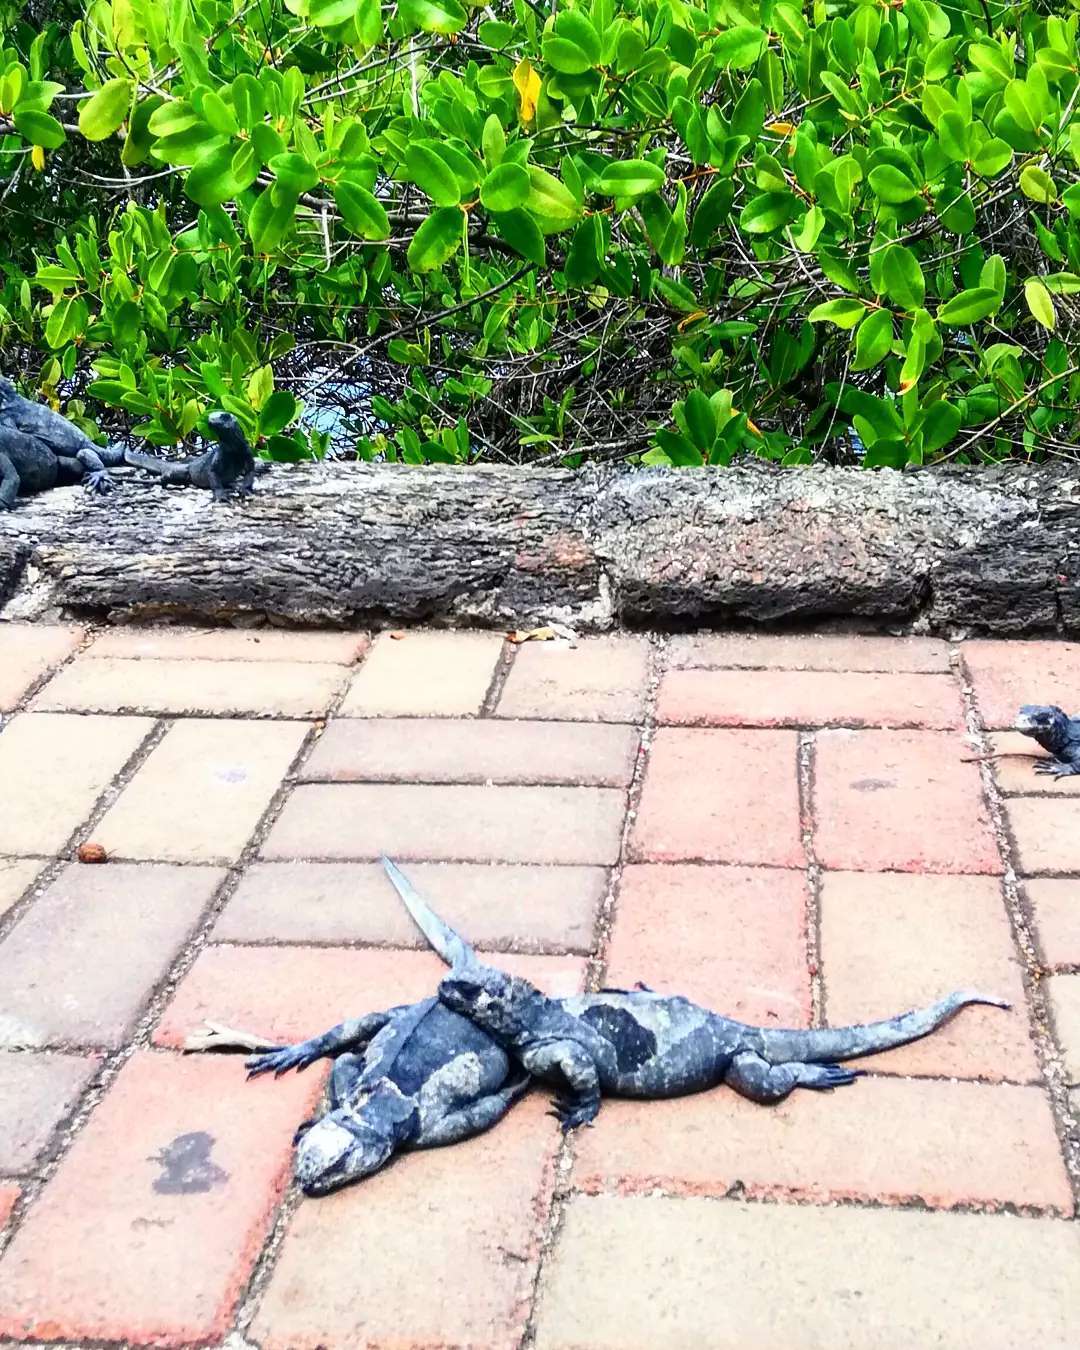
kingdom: Animalia
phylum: Chordata
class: Squamata
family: Iguanidae
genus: Amblyrhynchus
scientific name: Amblyrhynchus cristatus
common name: Marine iguana
